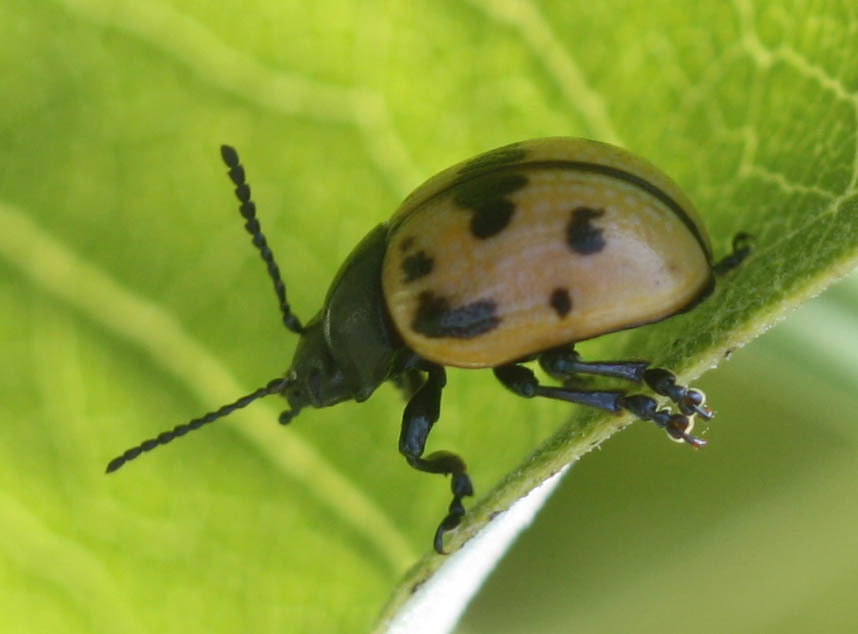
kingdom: Animalia
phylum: Arthropoda
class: Insecta
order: Coleoptera
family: Chrysomelidae
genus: Labidomera
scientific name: Labidomera clivicollis
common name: Swamp milkweed leaf beetle
